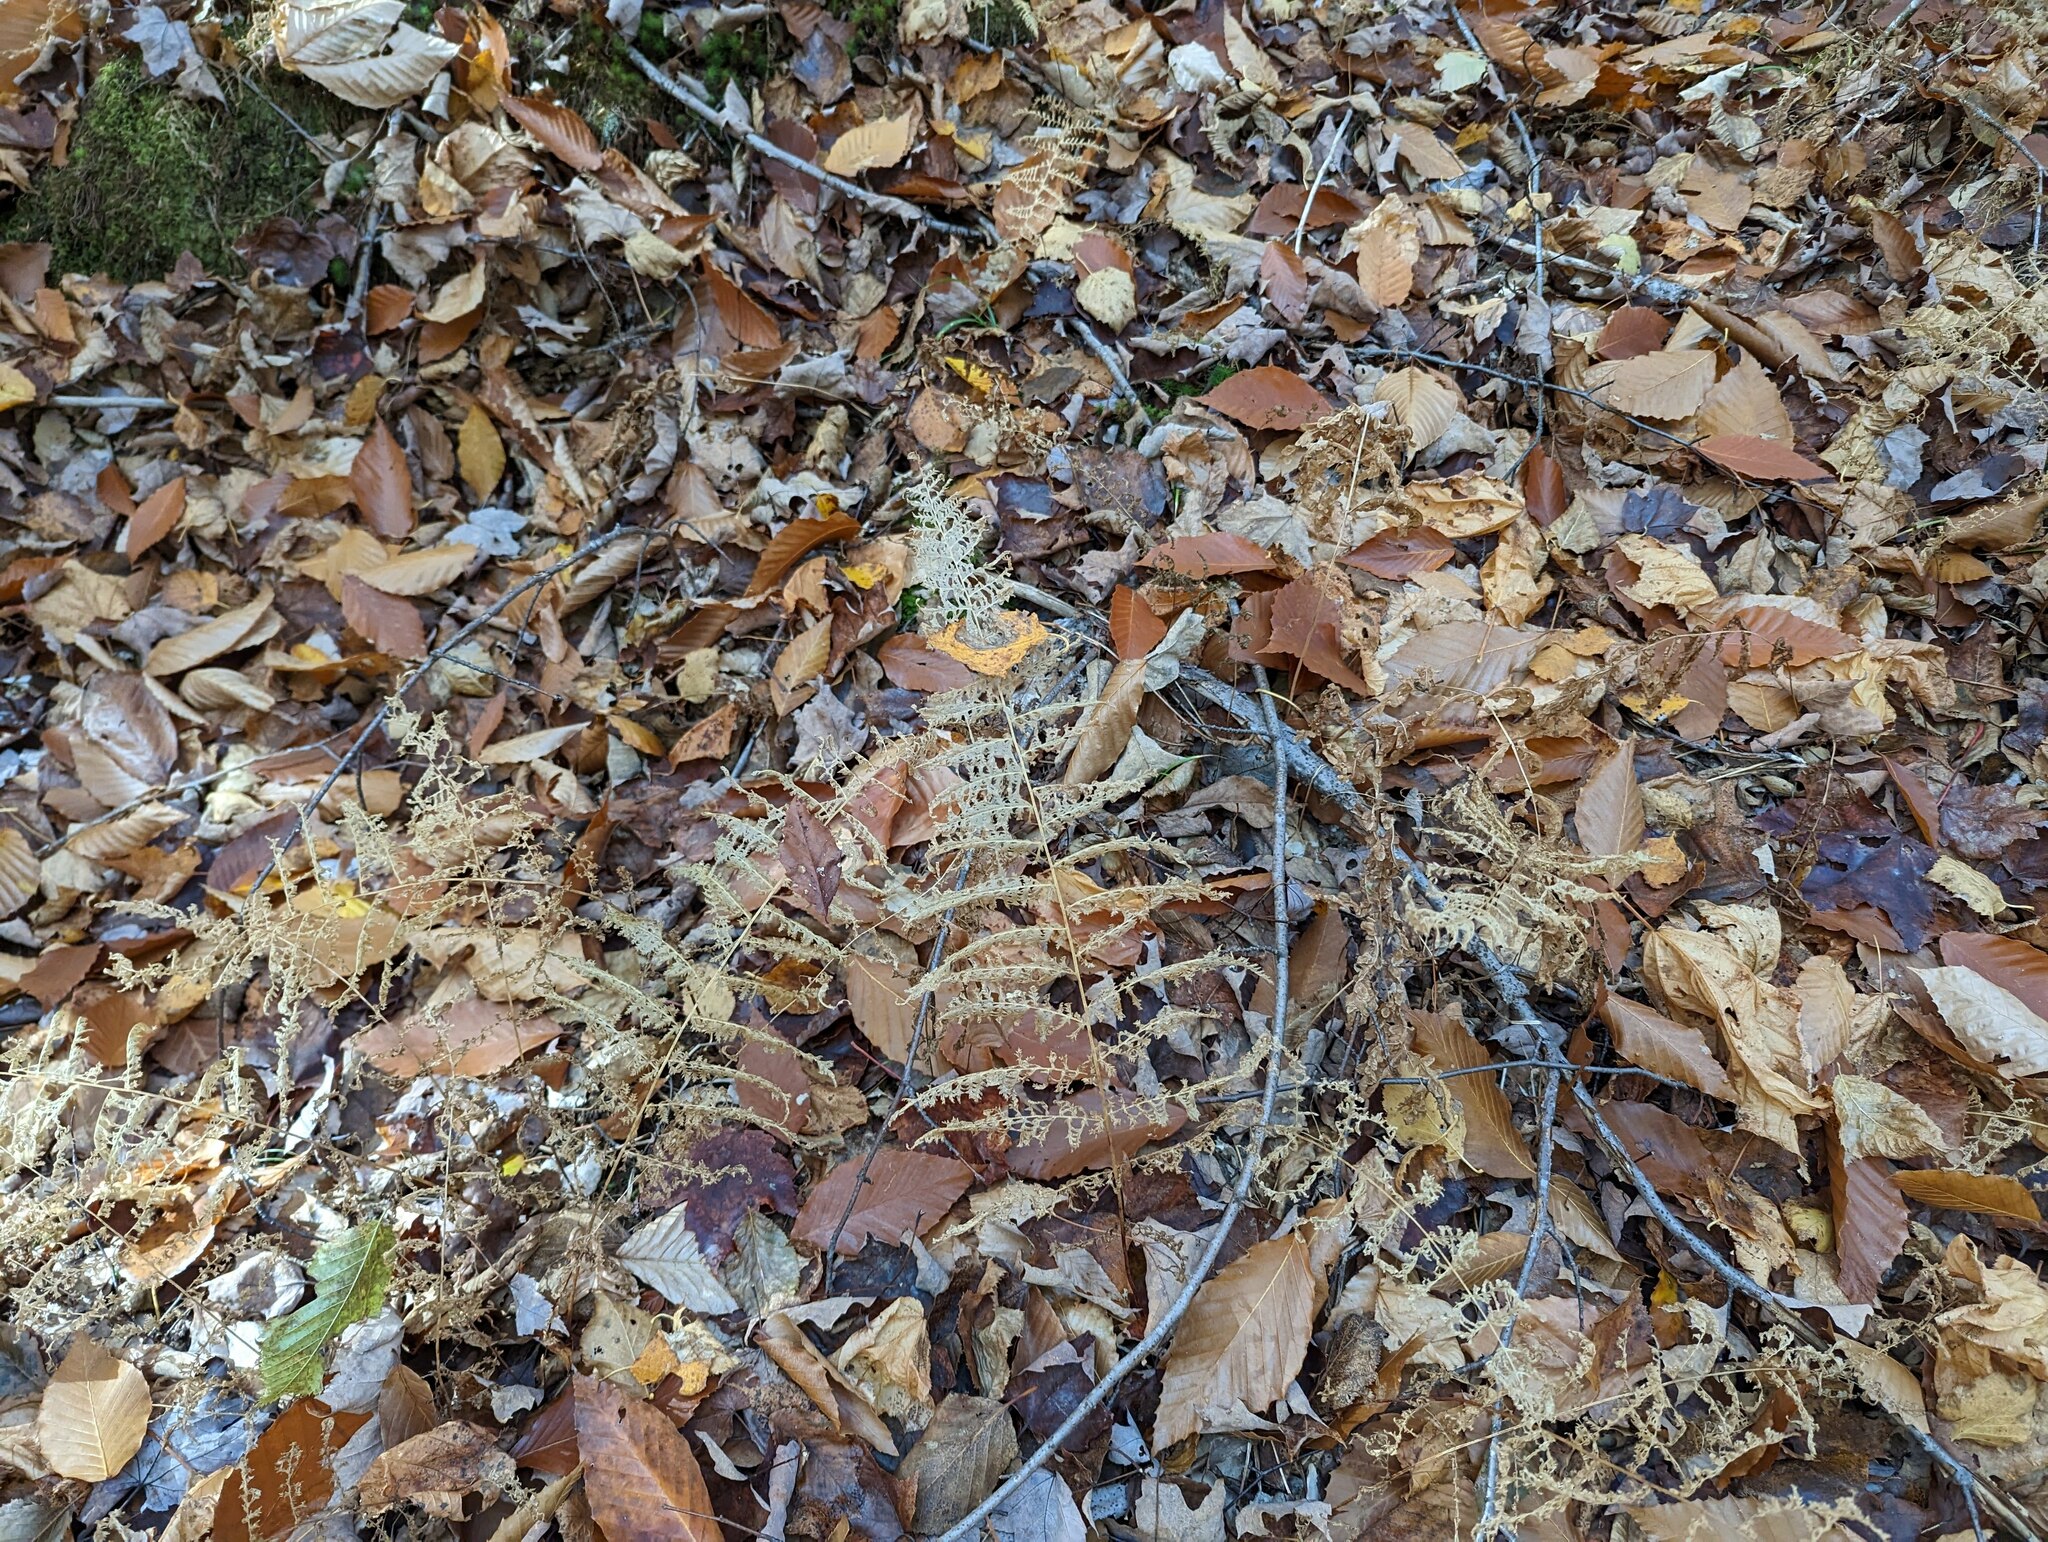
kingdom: Plantae
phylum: Tracheophyta
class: Polypodiopsida
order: Polypodiales
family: Dennstaedtiaceae
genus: Sitobolium
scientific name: Sitobolium punctilobum
